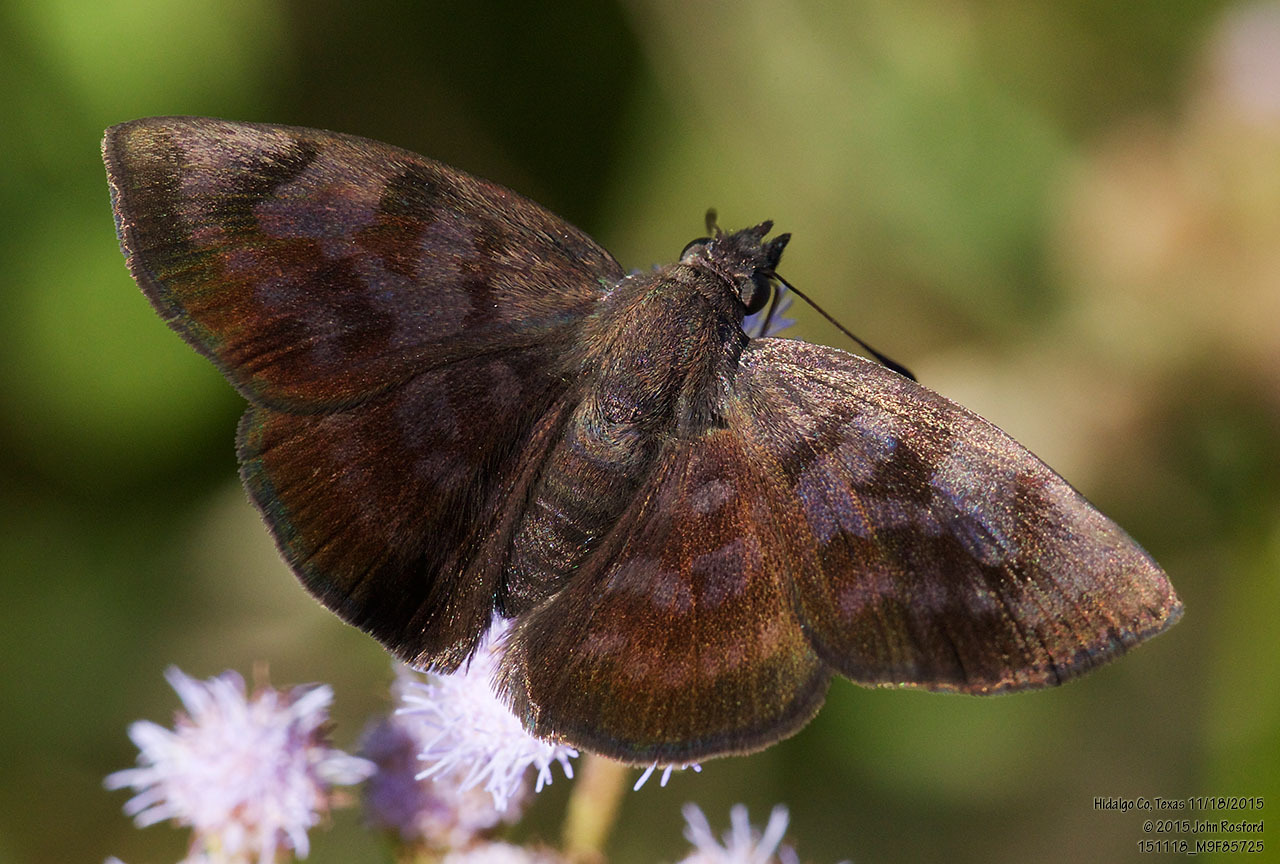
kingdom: Animalia
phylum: Arthropoda
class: Insecta
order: Lepidoptera
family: Hesperiidae
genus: Pellicia
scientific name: Pellicia costimacula
